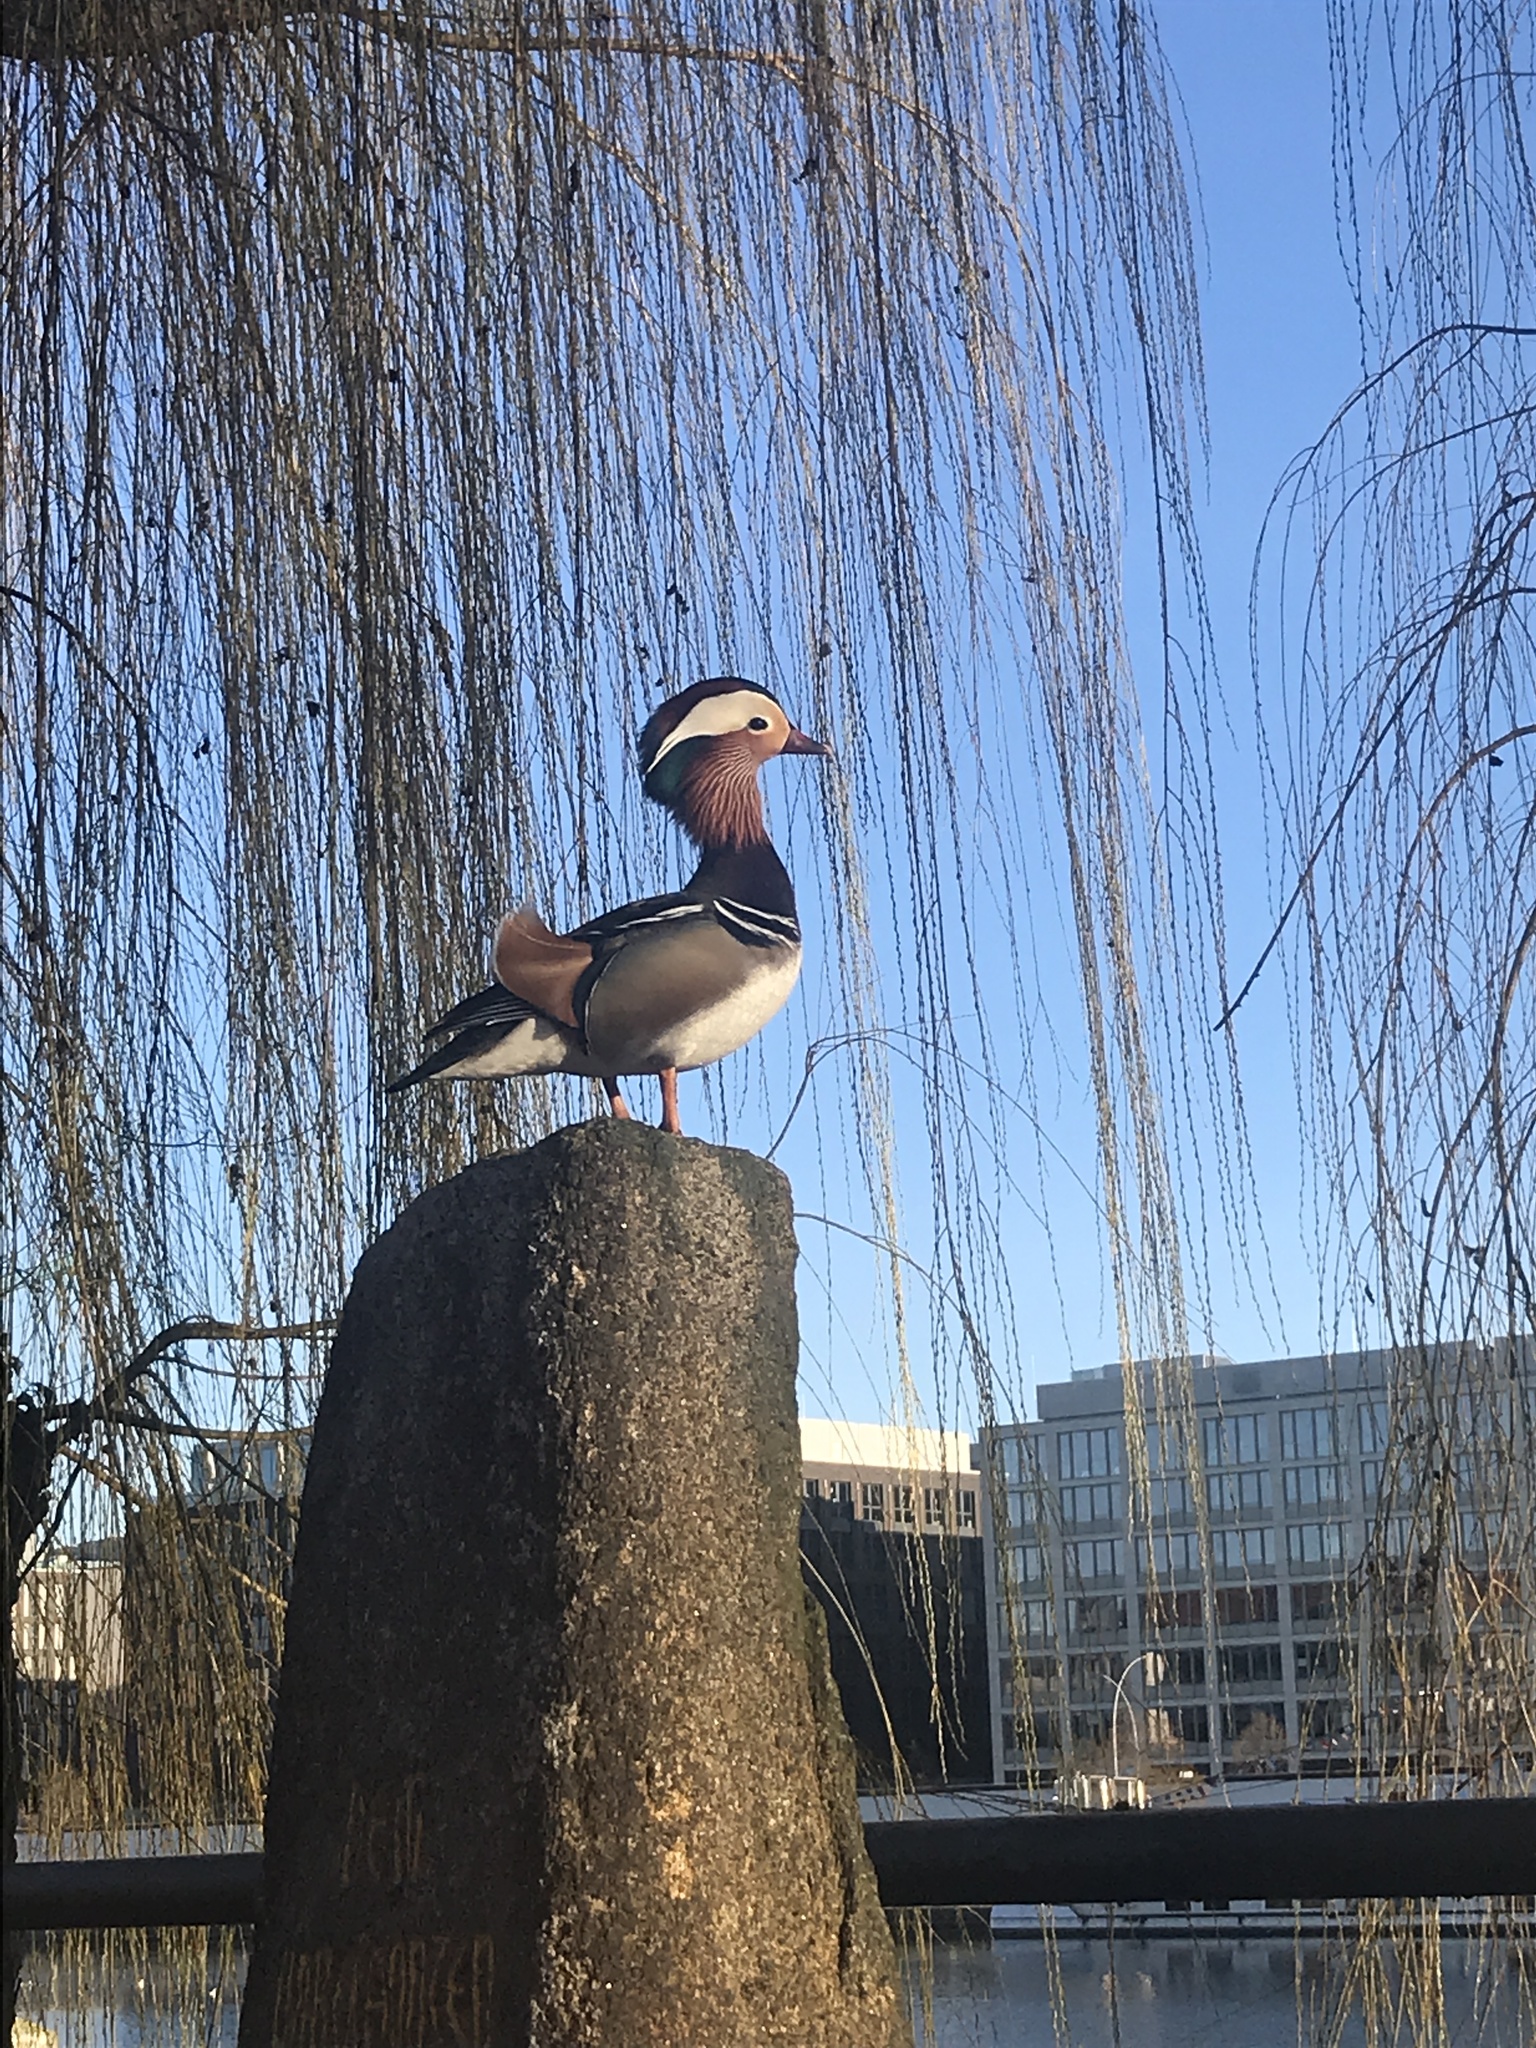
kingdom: Animalia
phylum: Chordata
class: Aves
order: Anseriformes
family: Anatidae
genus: Aix
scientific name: Aix galericulata
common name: Mandarin duck
